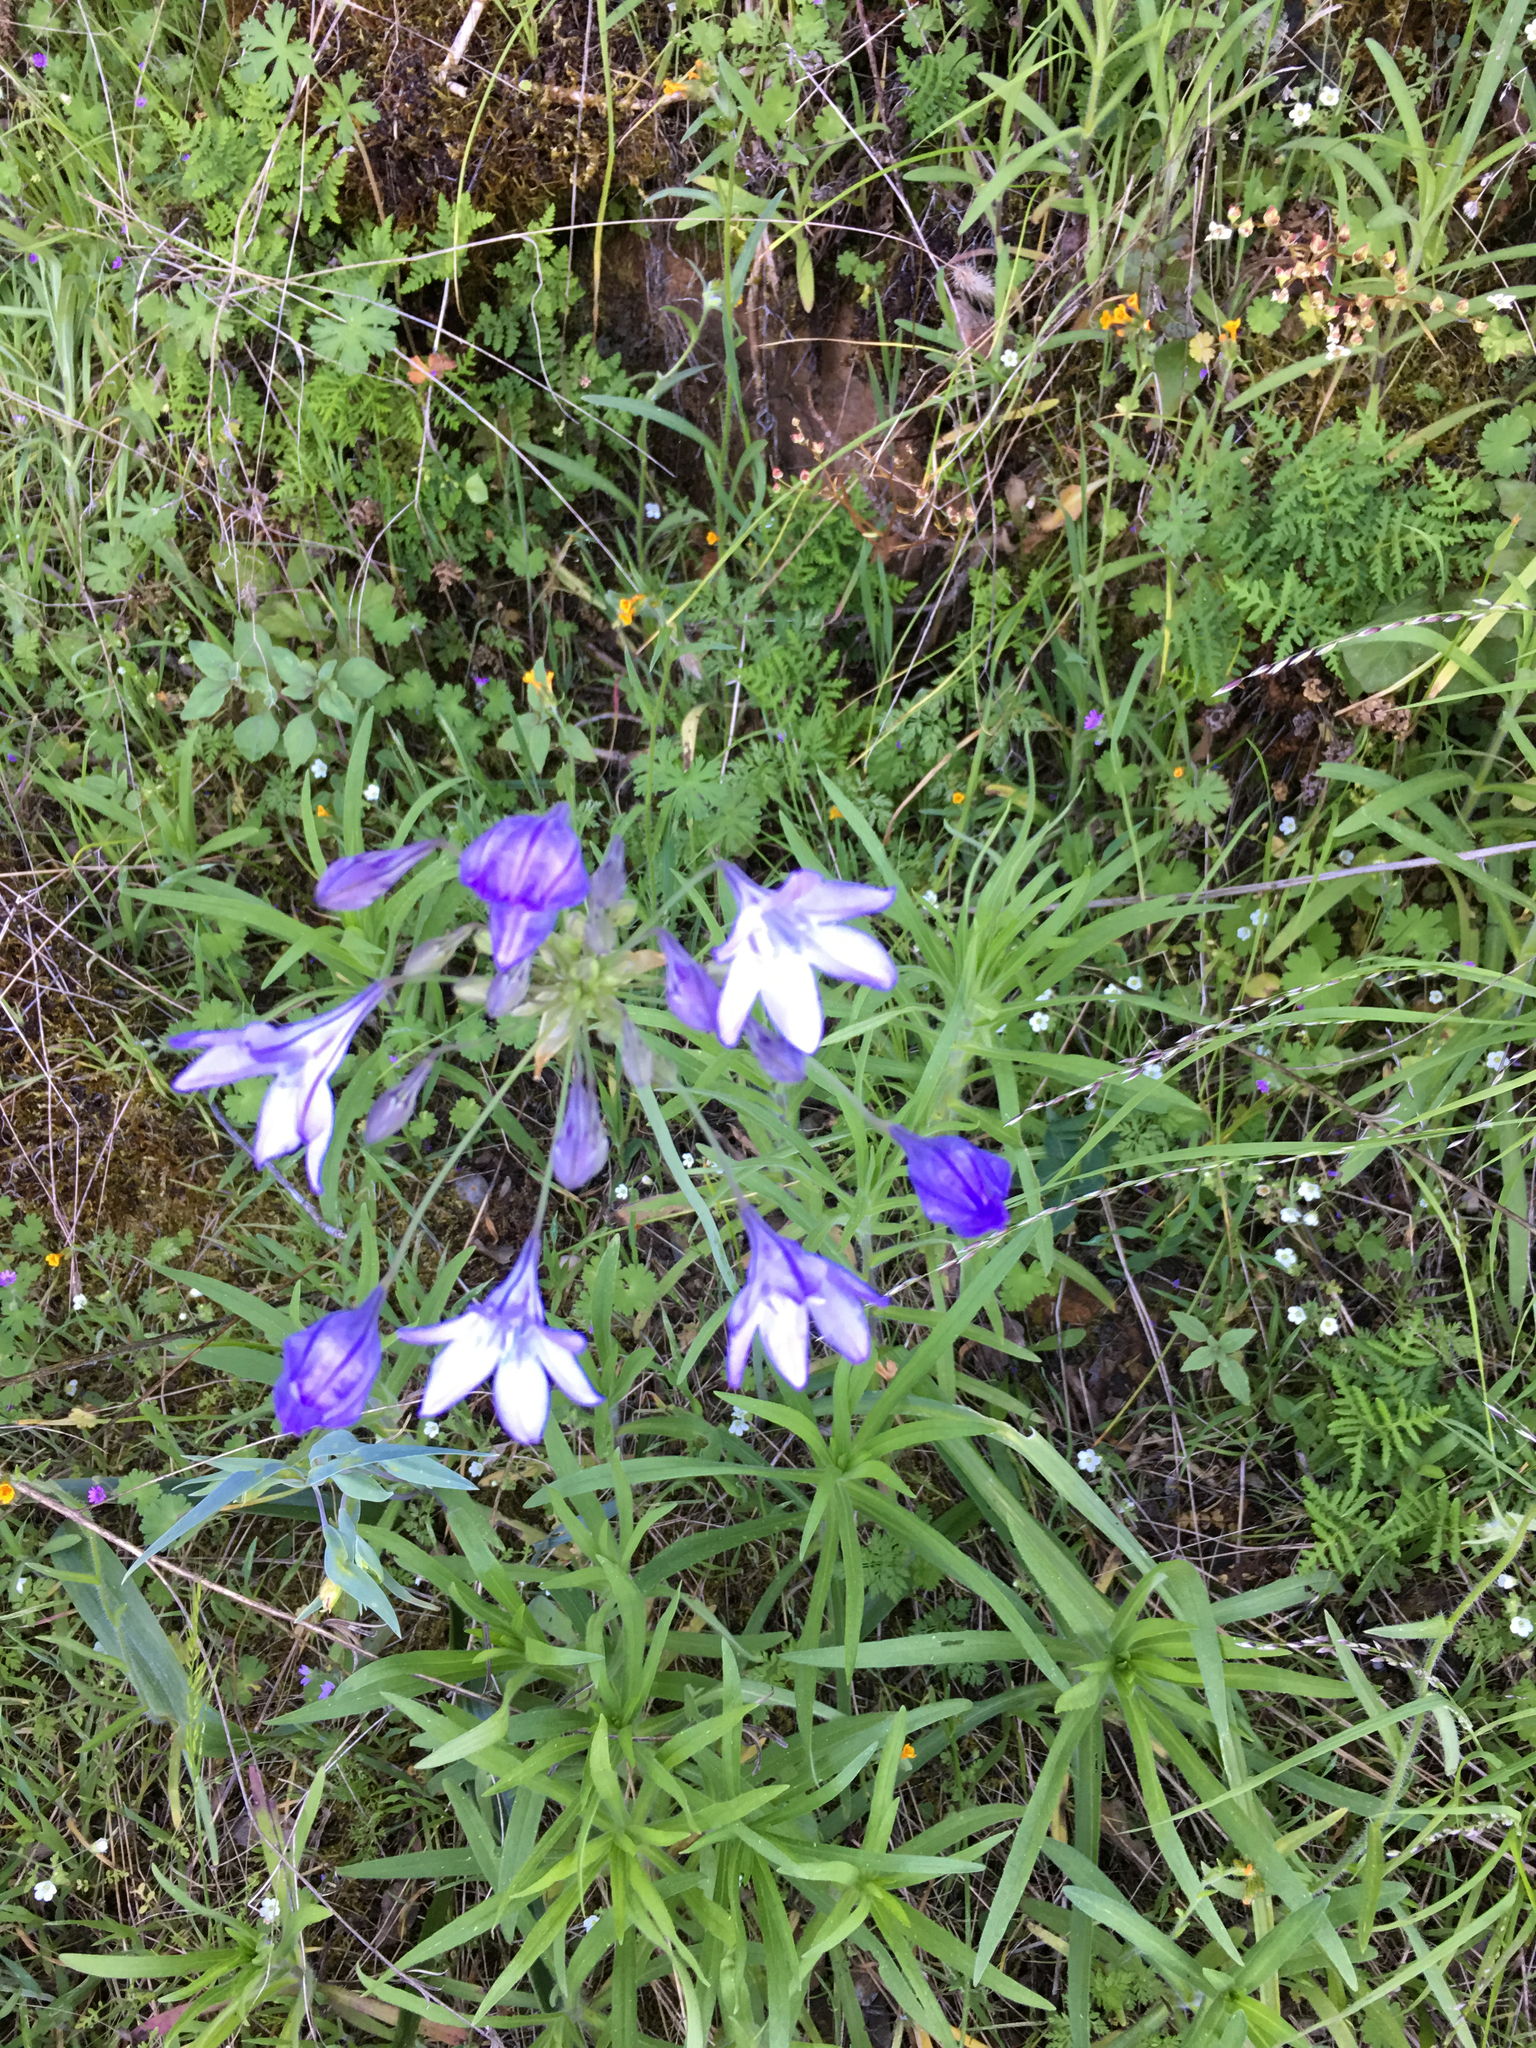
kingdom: Plantae
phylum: Tracheophyta
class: Liliopsida
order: Asparagales
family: Asparagaceae
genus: Triteleia
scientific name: Triteleia laxa
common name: Triplet-lily
